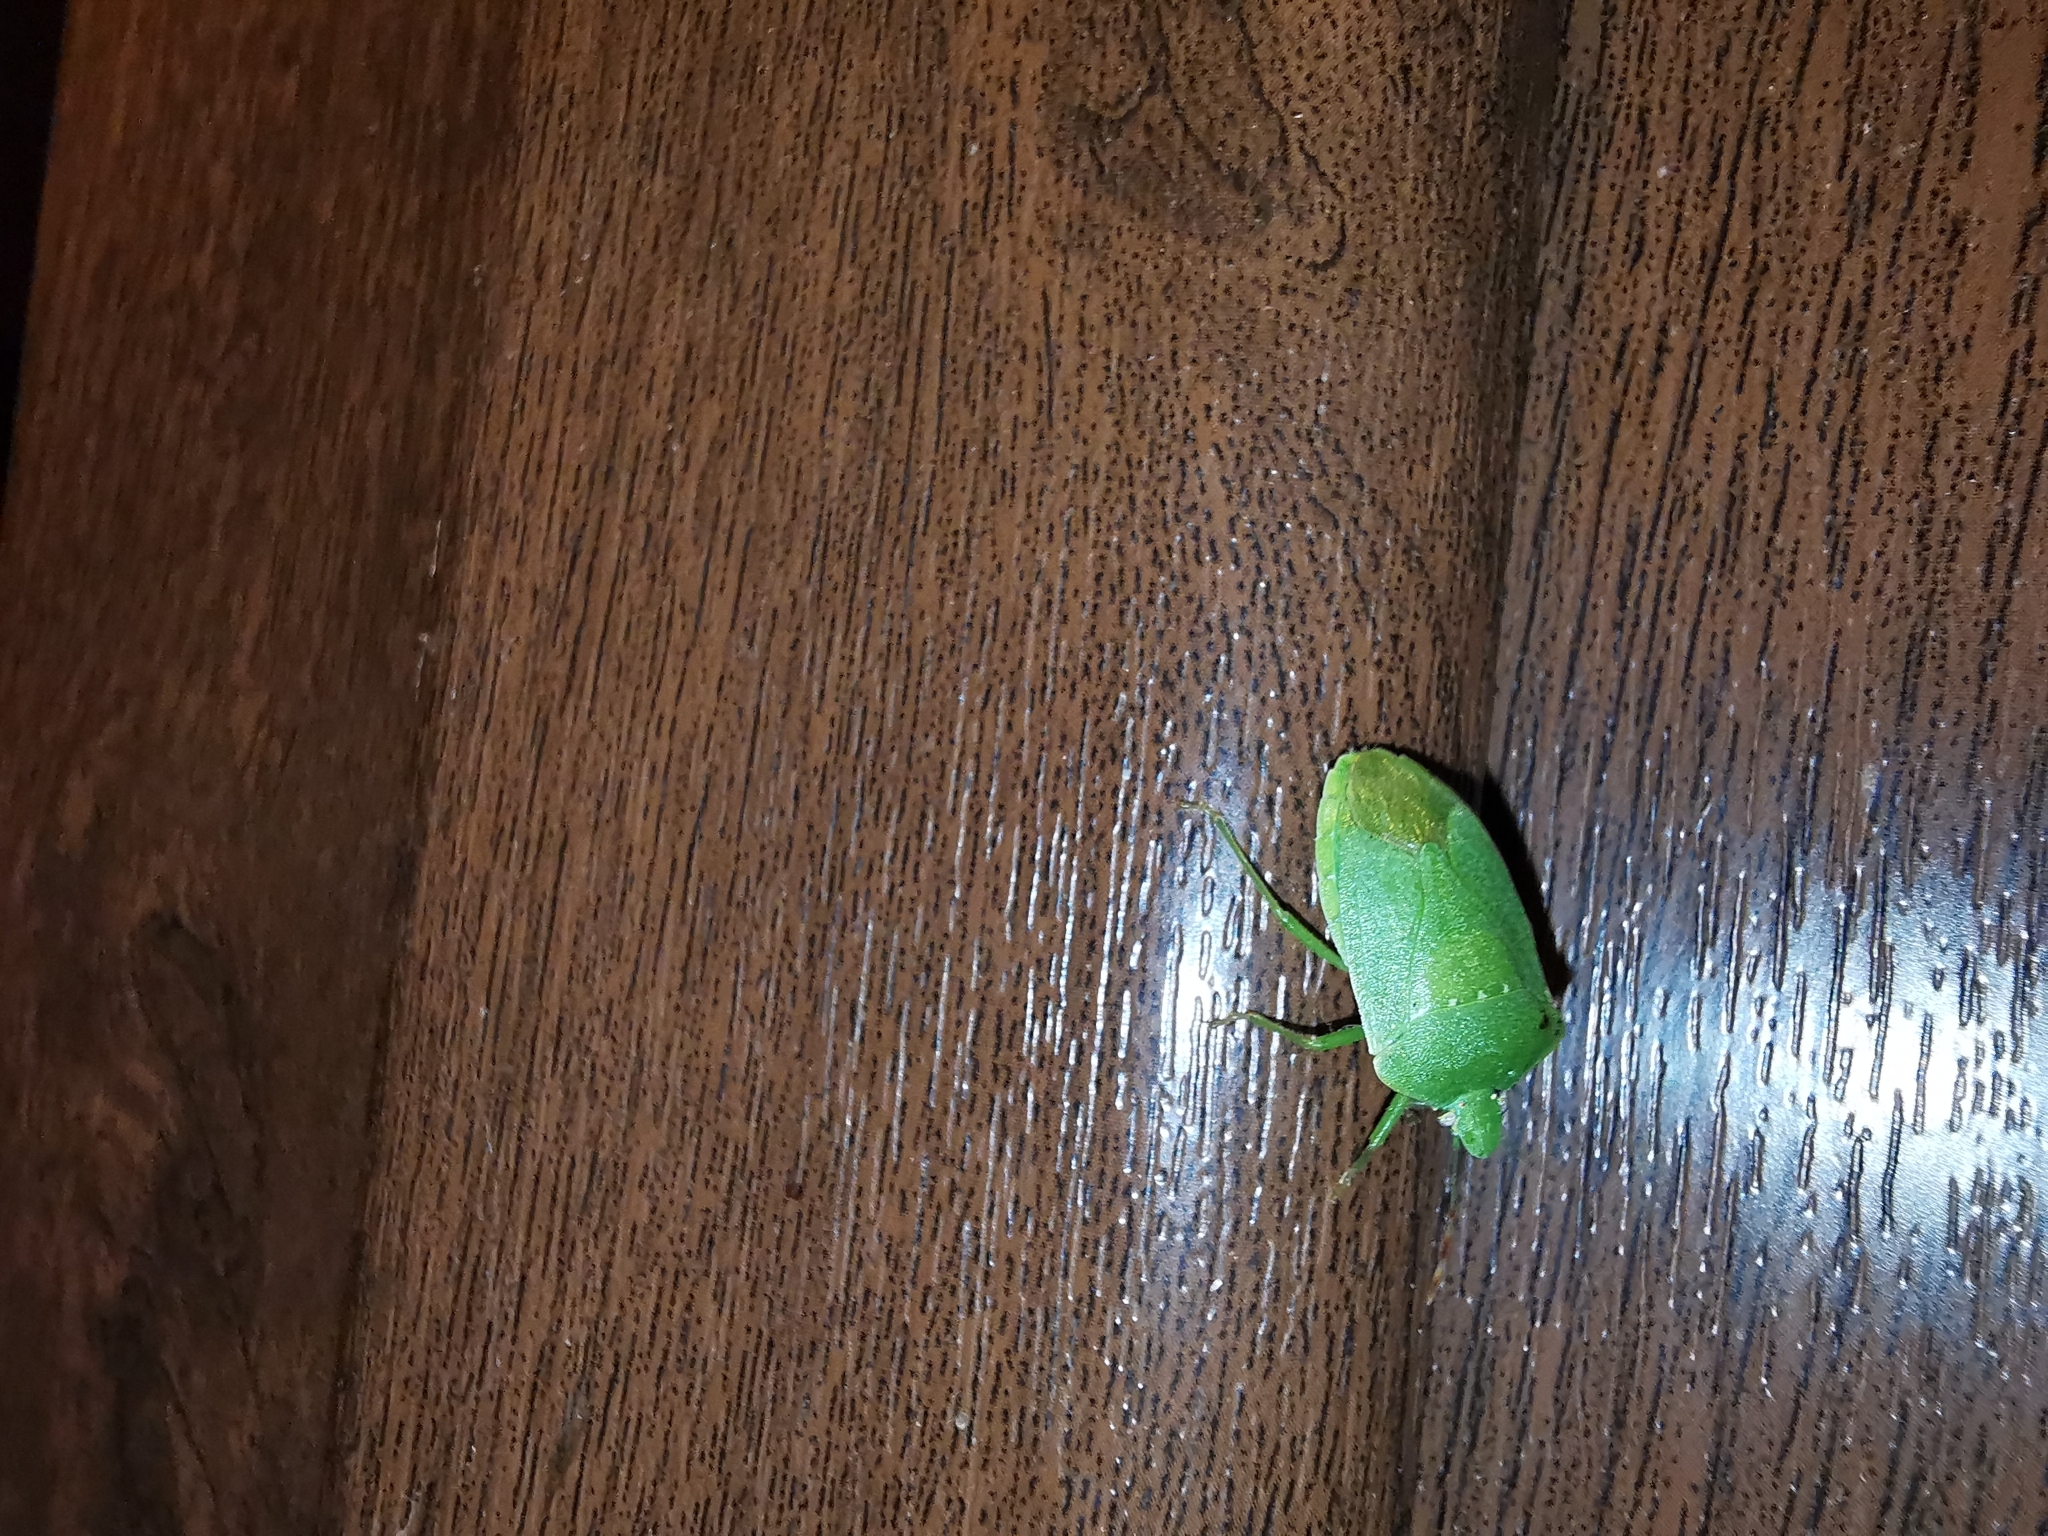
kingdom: Animalia
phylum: Arthropoda
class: Insecta
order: Hemiptera
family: Pentatomidae
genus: Nezara
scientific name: Nezara viridula
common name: Southern green stink bug
